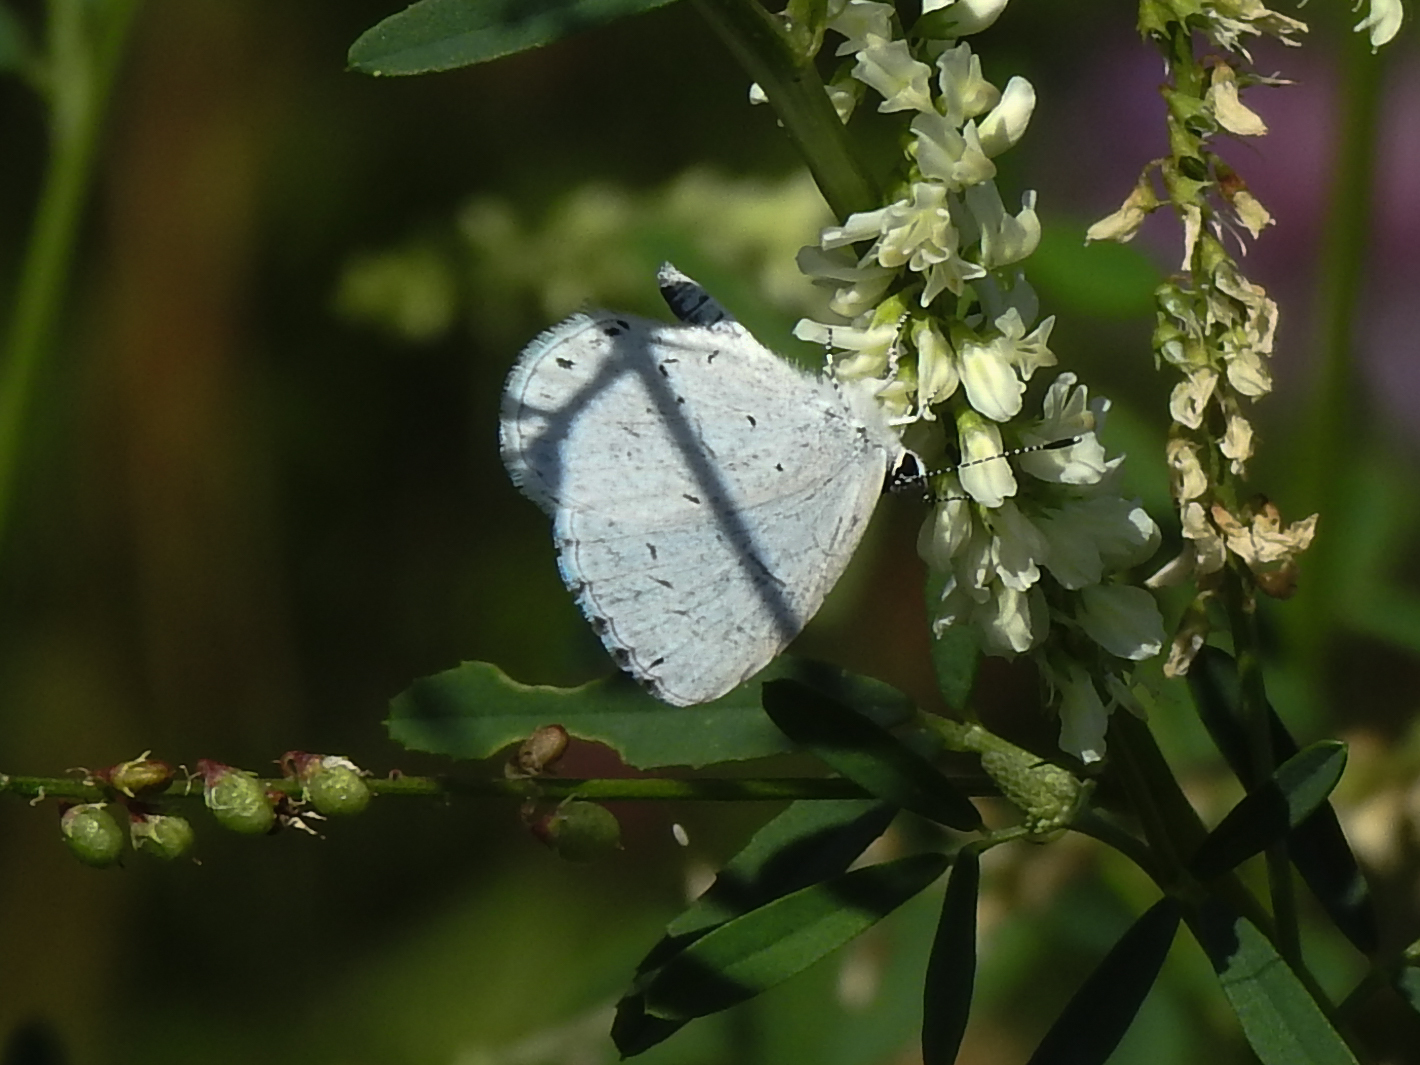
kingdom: Animalia
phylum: Arthropoda
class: Insecta
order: Lepidoptera
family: Lycaenidae
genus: Cyaniris
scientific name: Cyaniris neglecta
